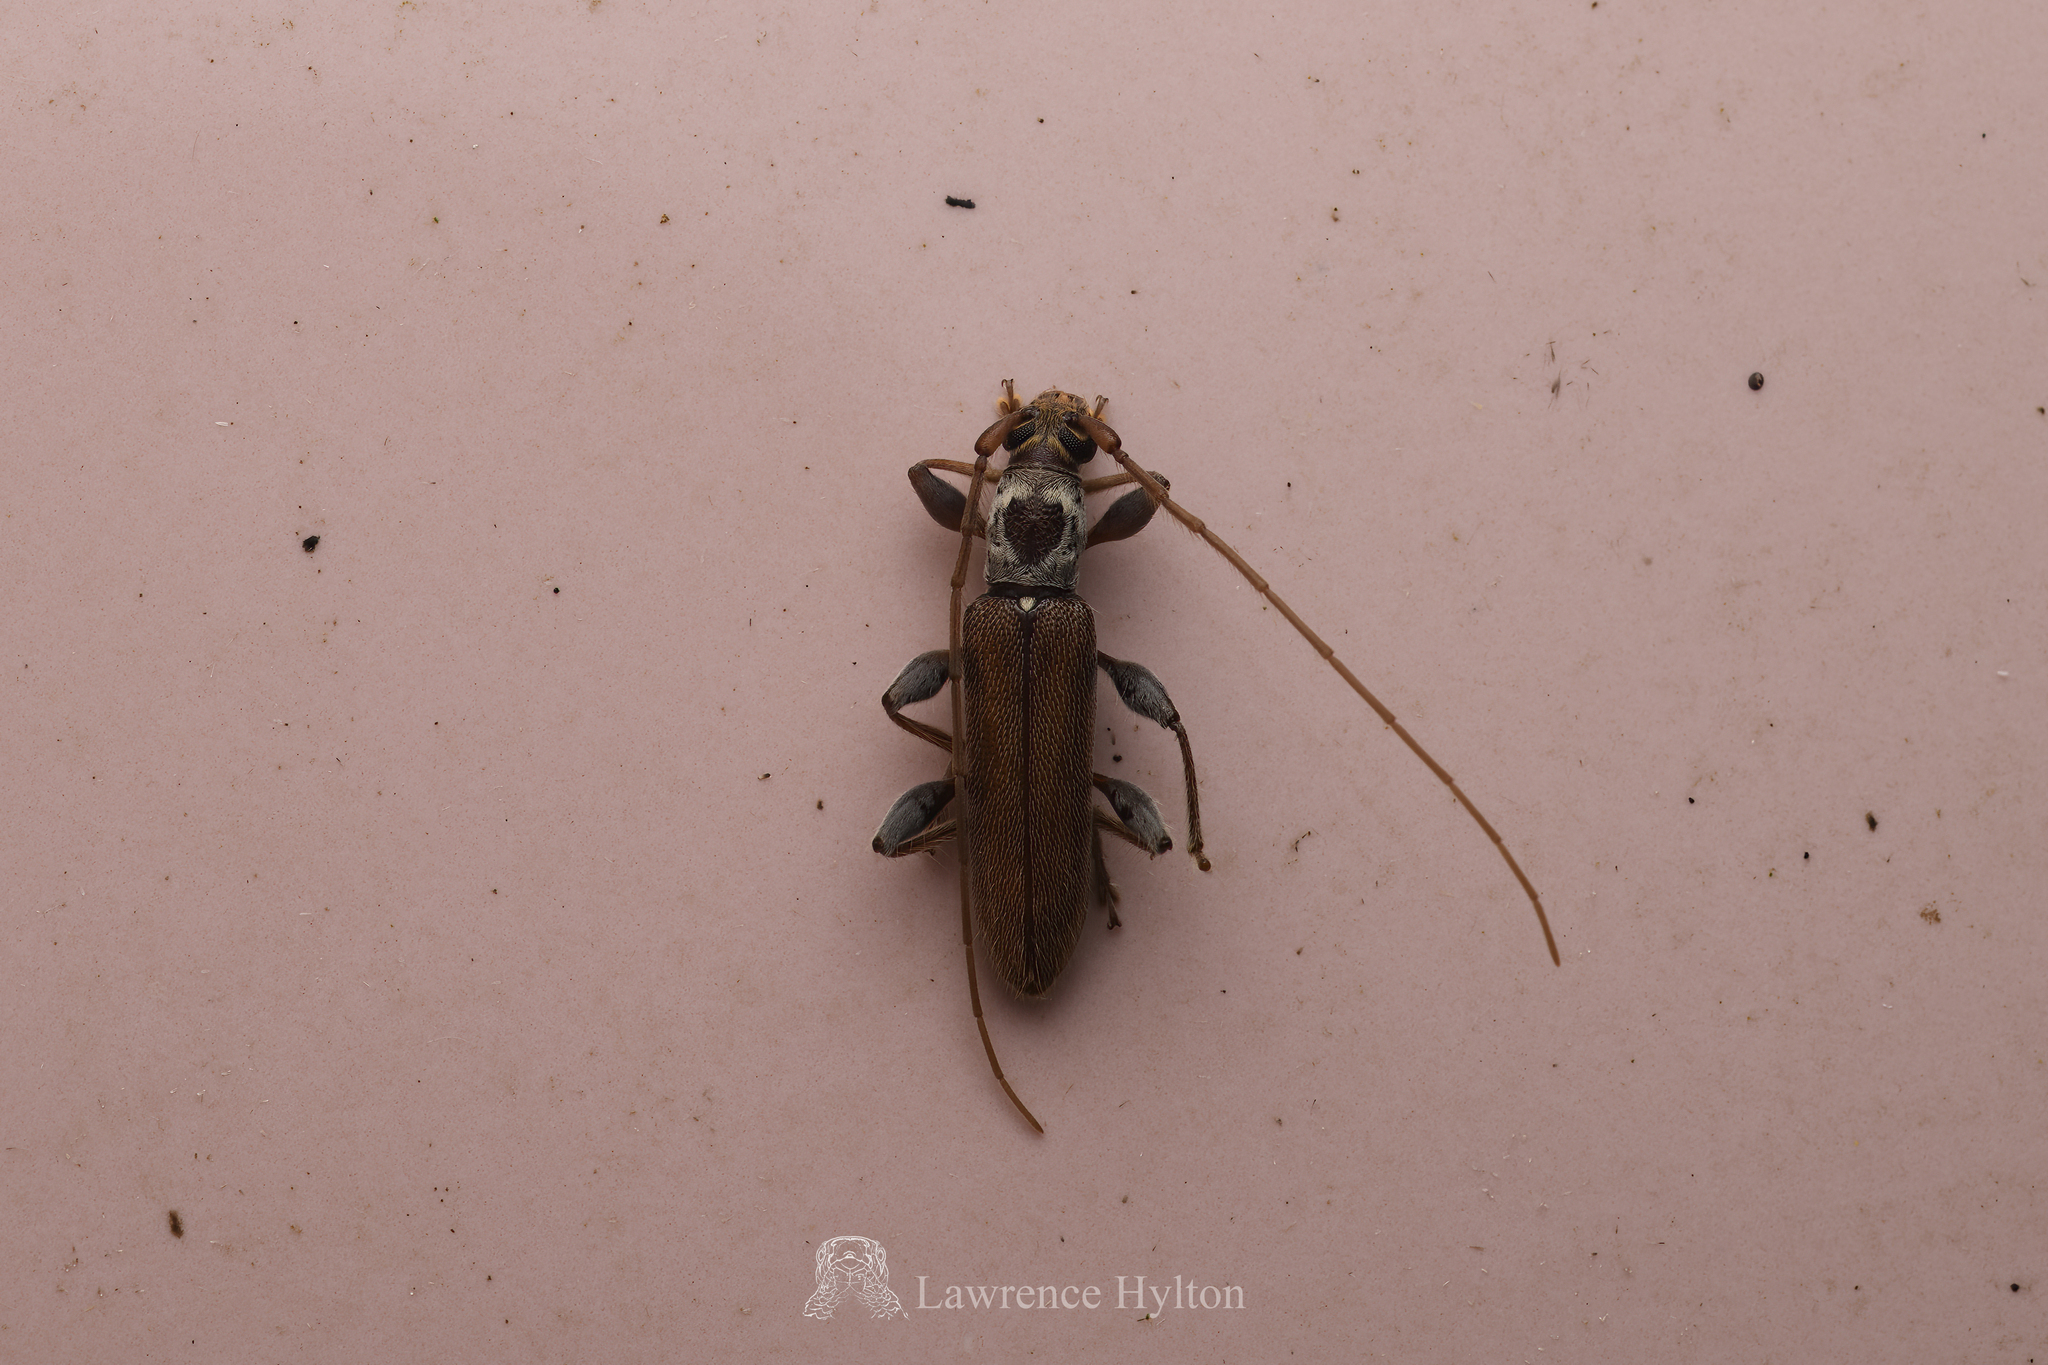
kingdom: Animalia
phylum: Arthropoda
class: Insecta
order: Coleoptera
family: Cerambycidae
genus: Ceresium
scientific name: Ceresium zeylanicum
